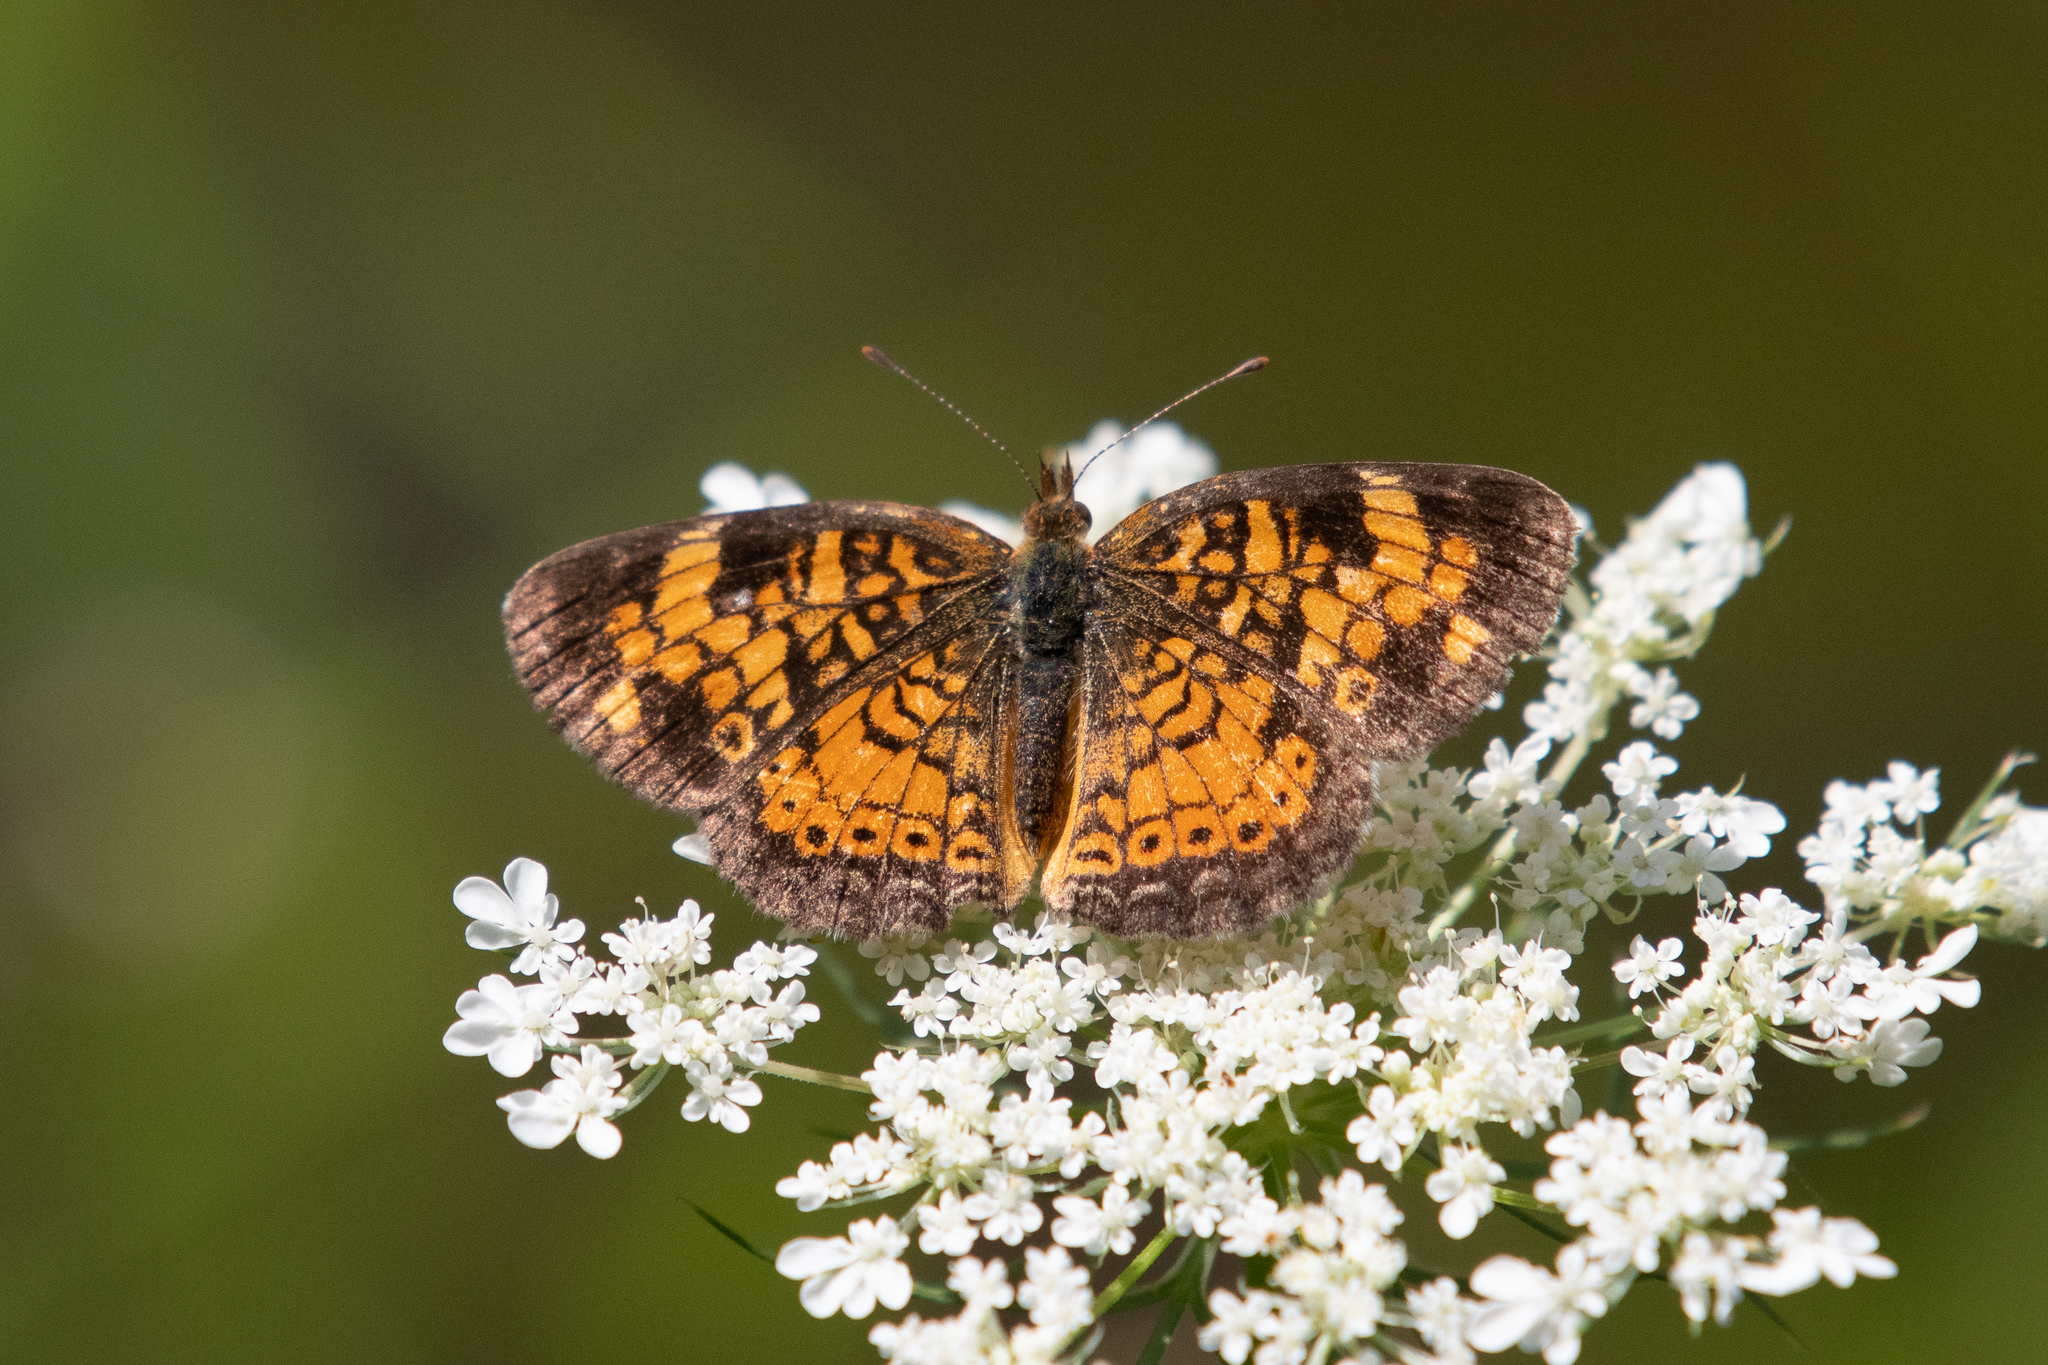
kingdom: Animalia
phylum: Arthropoda
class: Insecta
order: Lepidoptera
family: Nymphalidae
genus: Phyciodes
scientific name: Phyciodes tharos
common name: Pearl crescent
